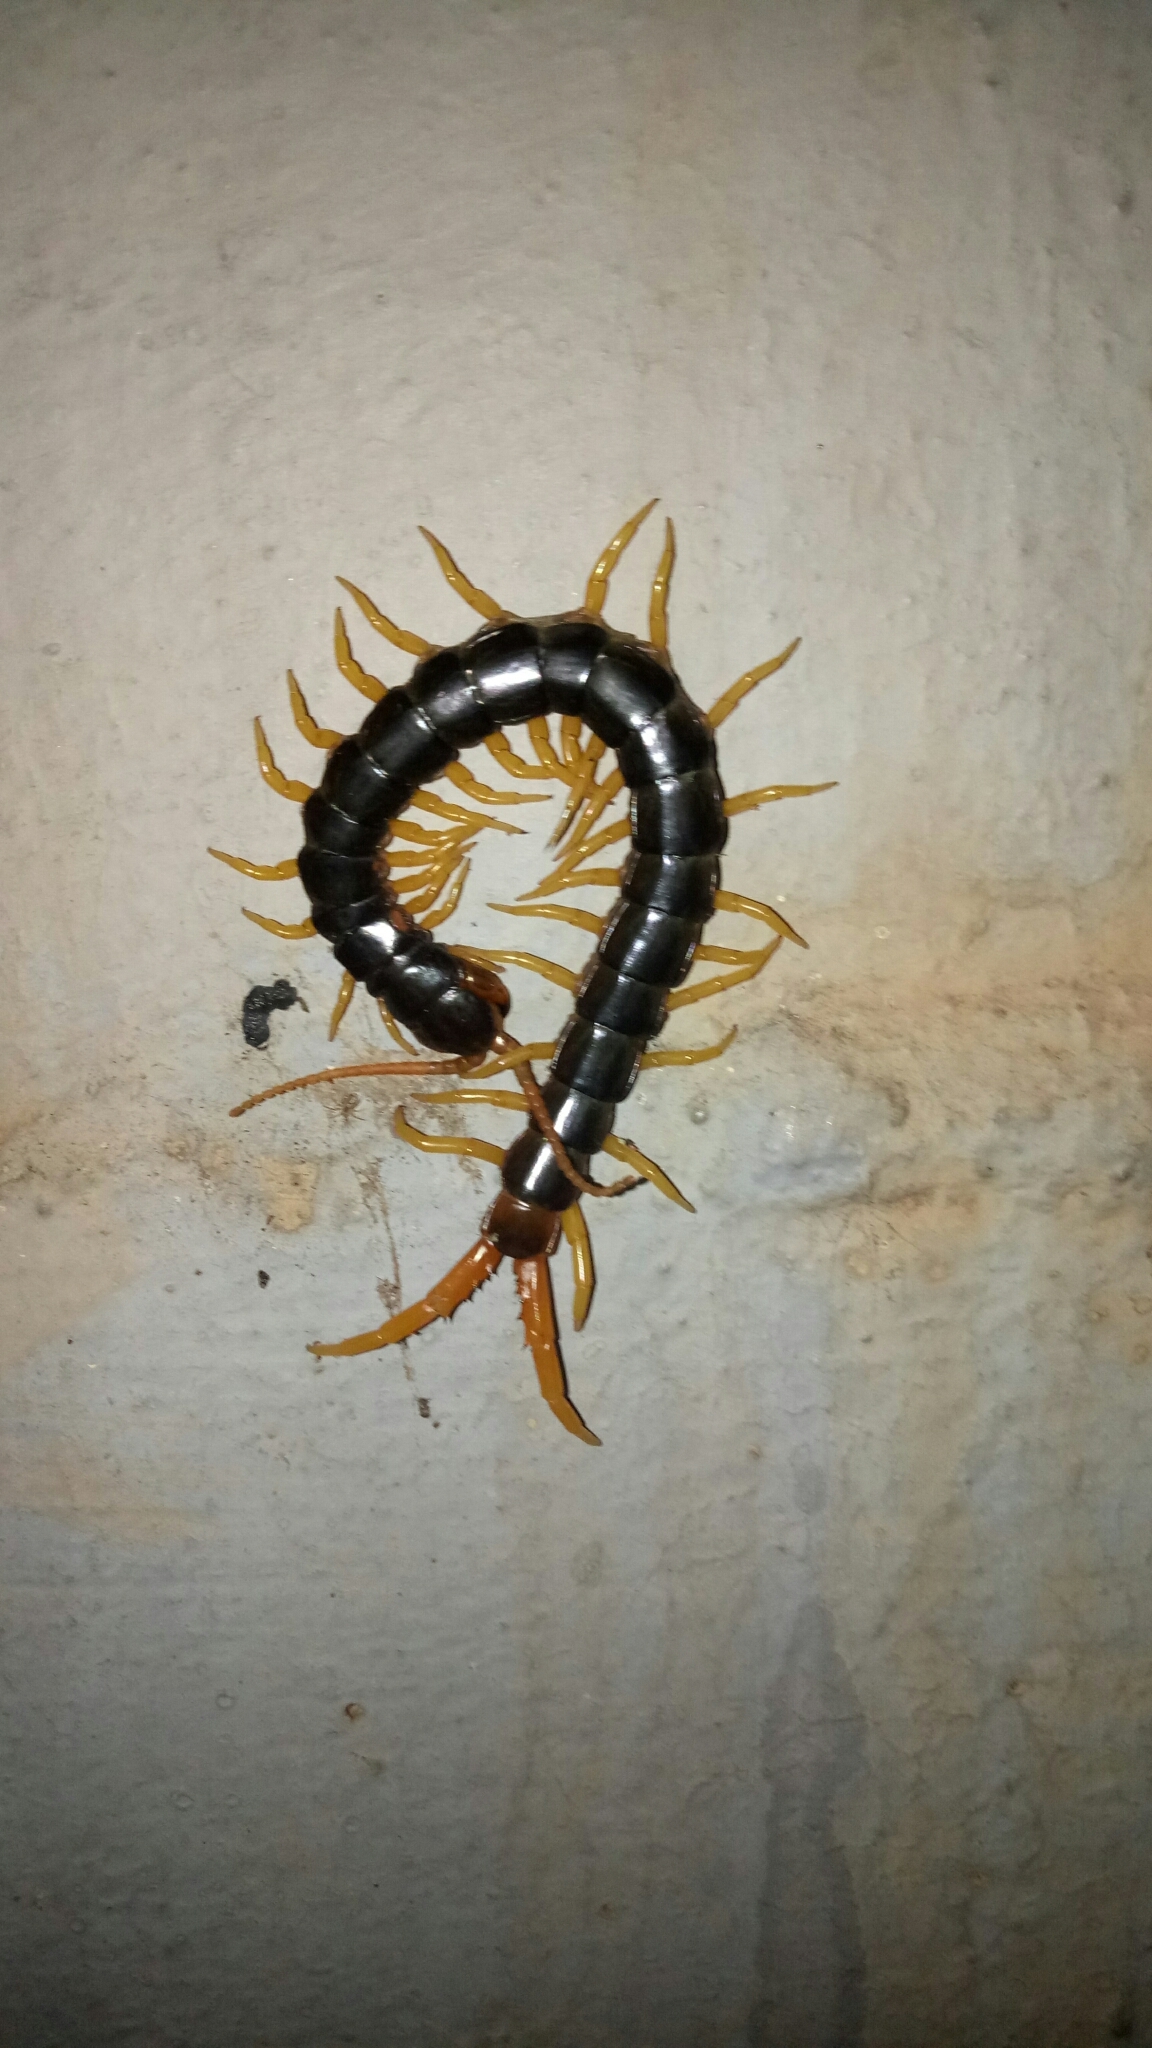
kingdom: Animalia
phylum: Arthropoda
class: Chilopoda
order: Scolopendromorpha
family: Scolopendridae
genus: Ethmostigmus
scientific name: Ethmostigmus rubripes
